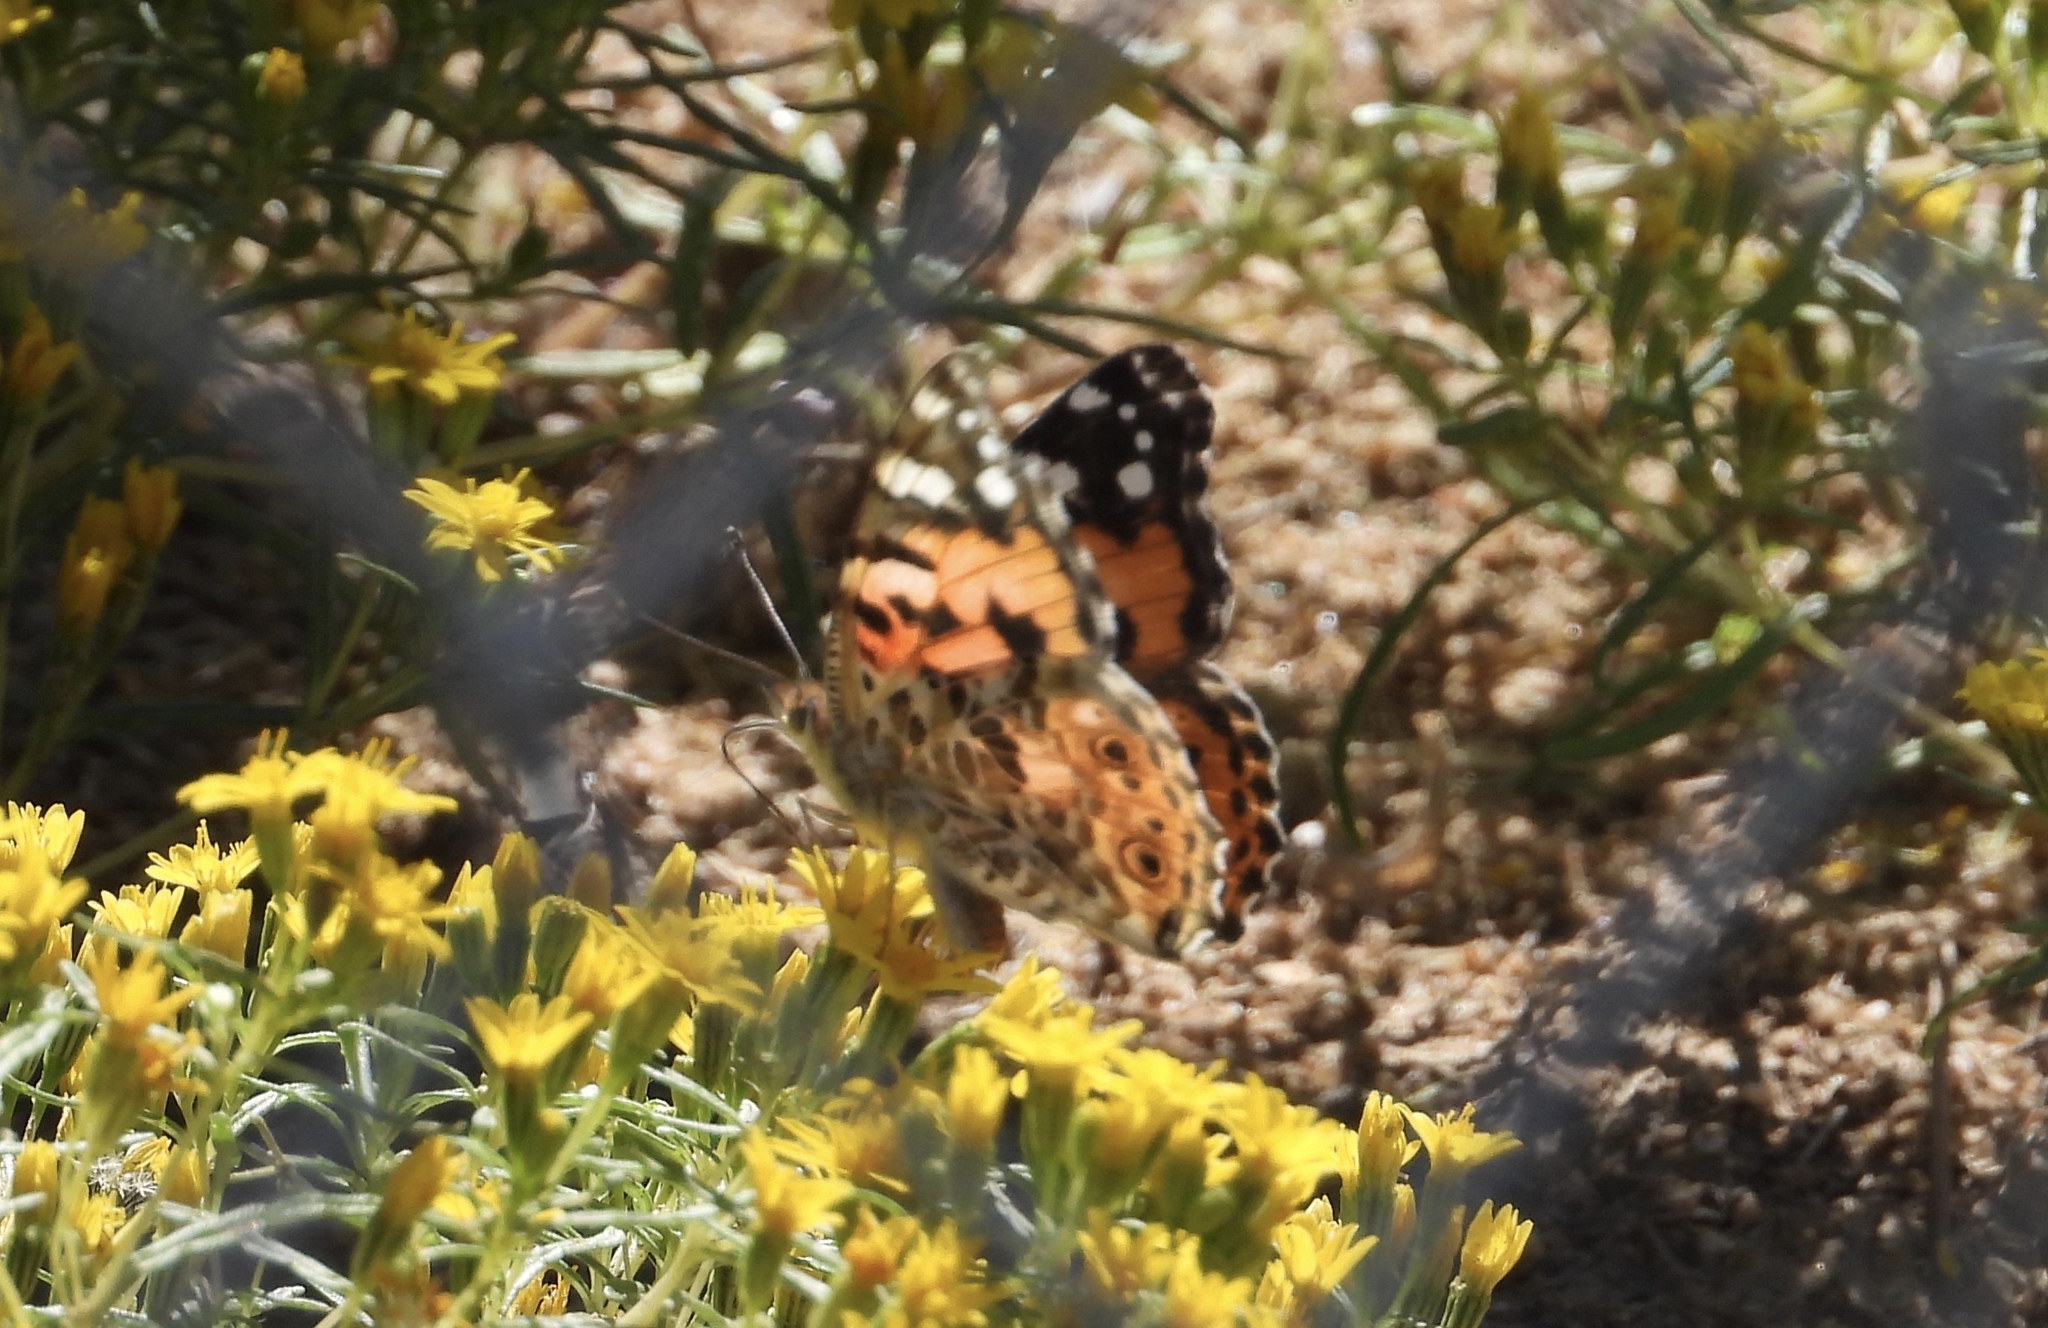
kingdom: Animalia
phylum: Arthropoda
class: Insecta
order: Lepidoptera
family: Nymphalidae
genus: Vanessa
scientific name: Vanessa cardui
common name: Painted lady
